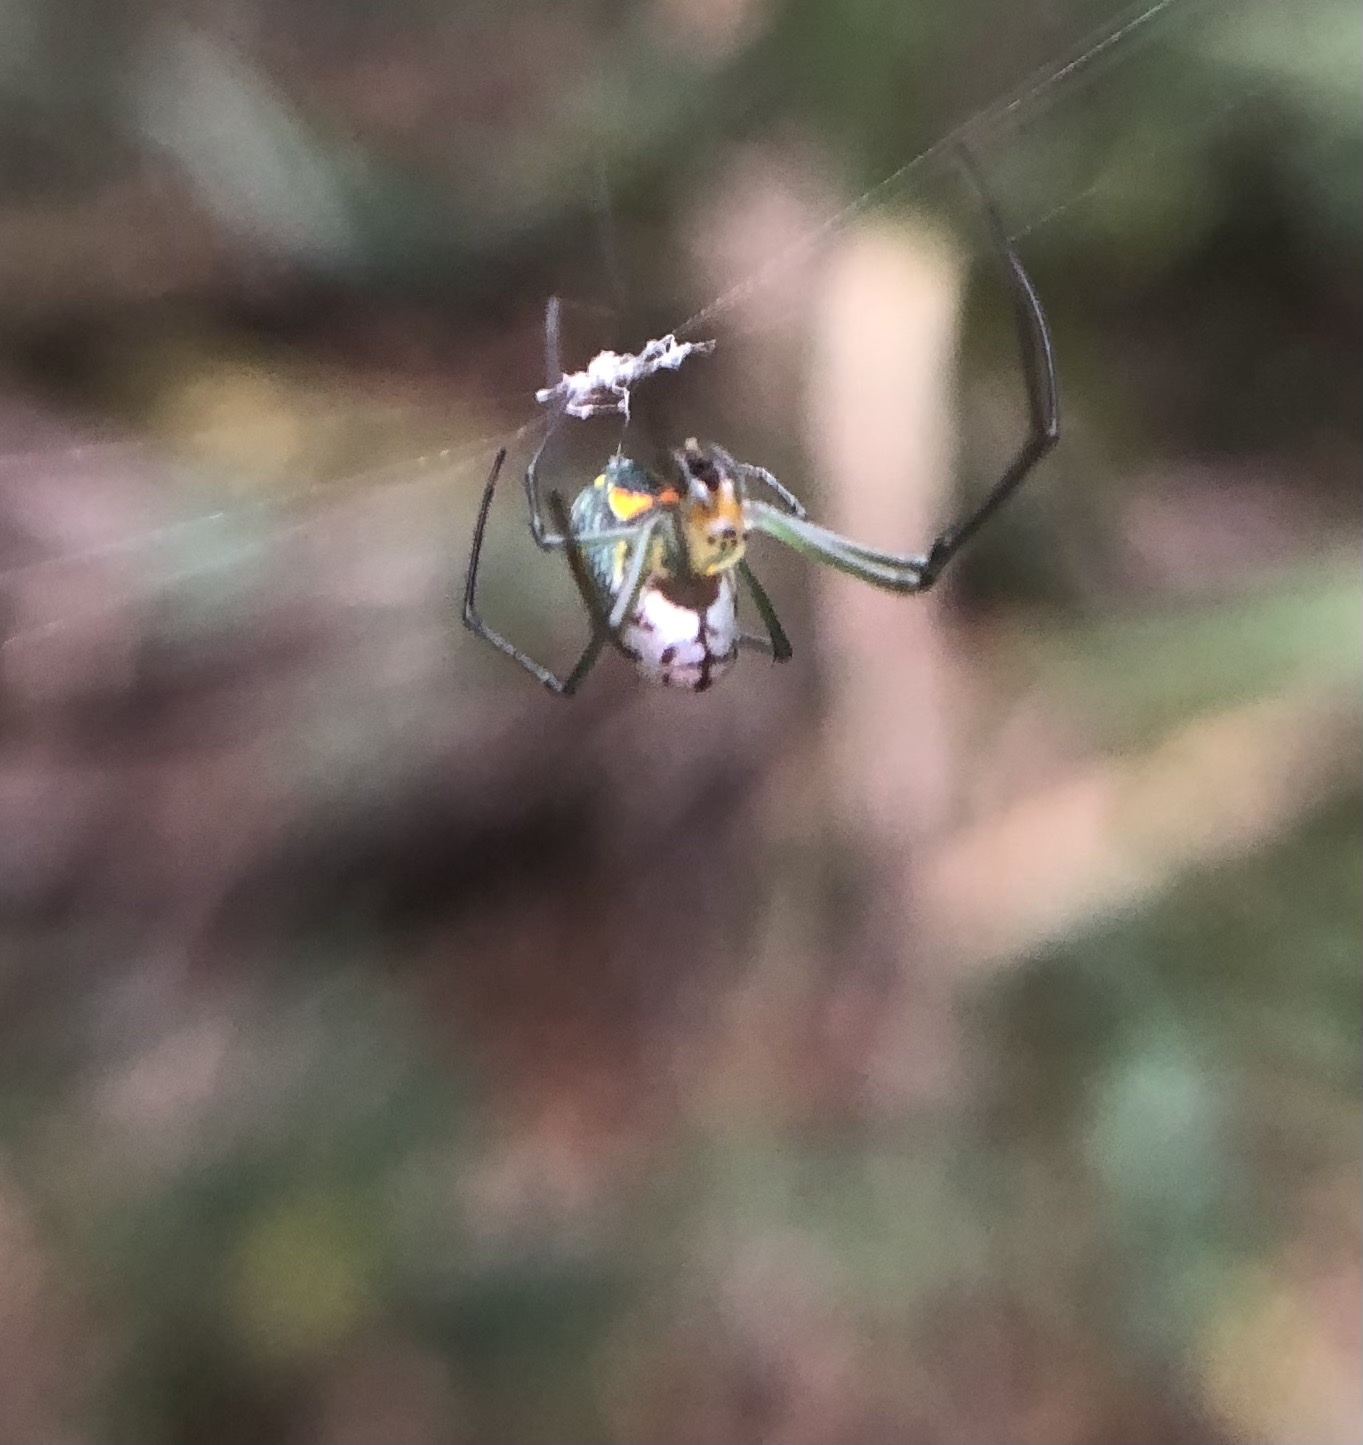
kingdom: Animalia
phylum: Arthropoda
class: Arachnida
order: Araneae
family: Tetragnathidae
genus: Leucauge
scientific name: Leucauge argyrobapta
